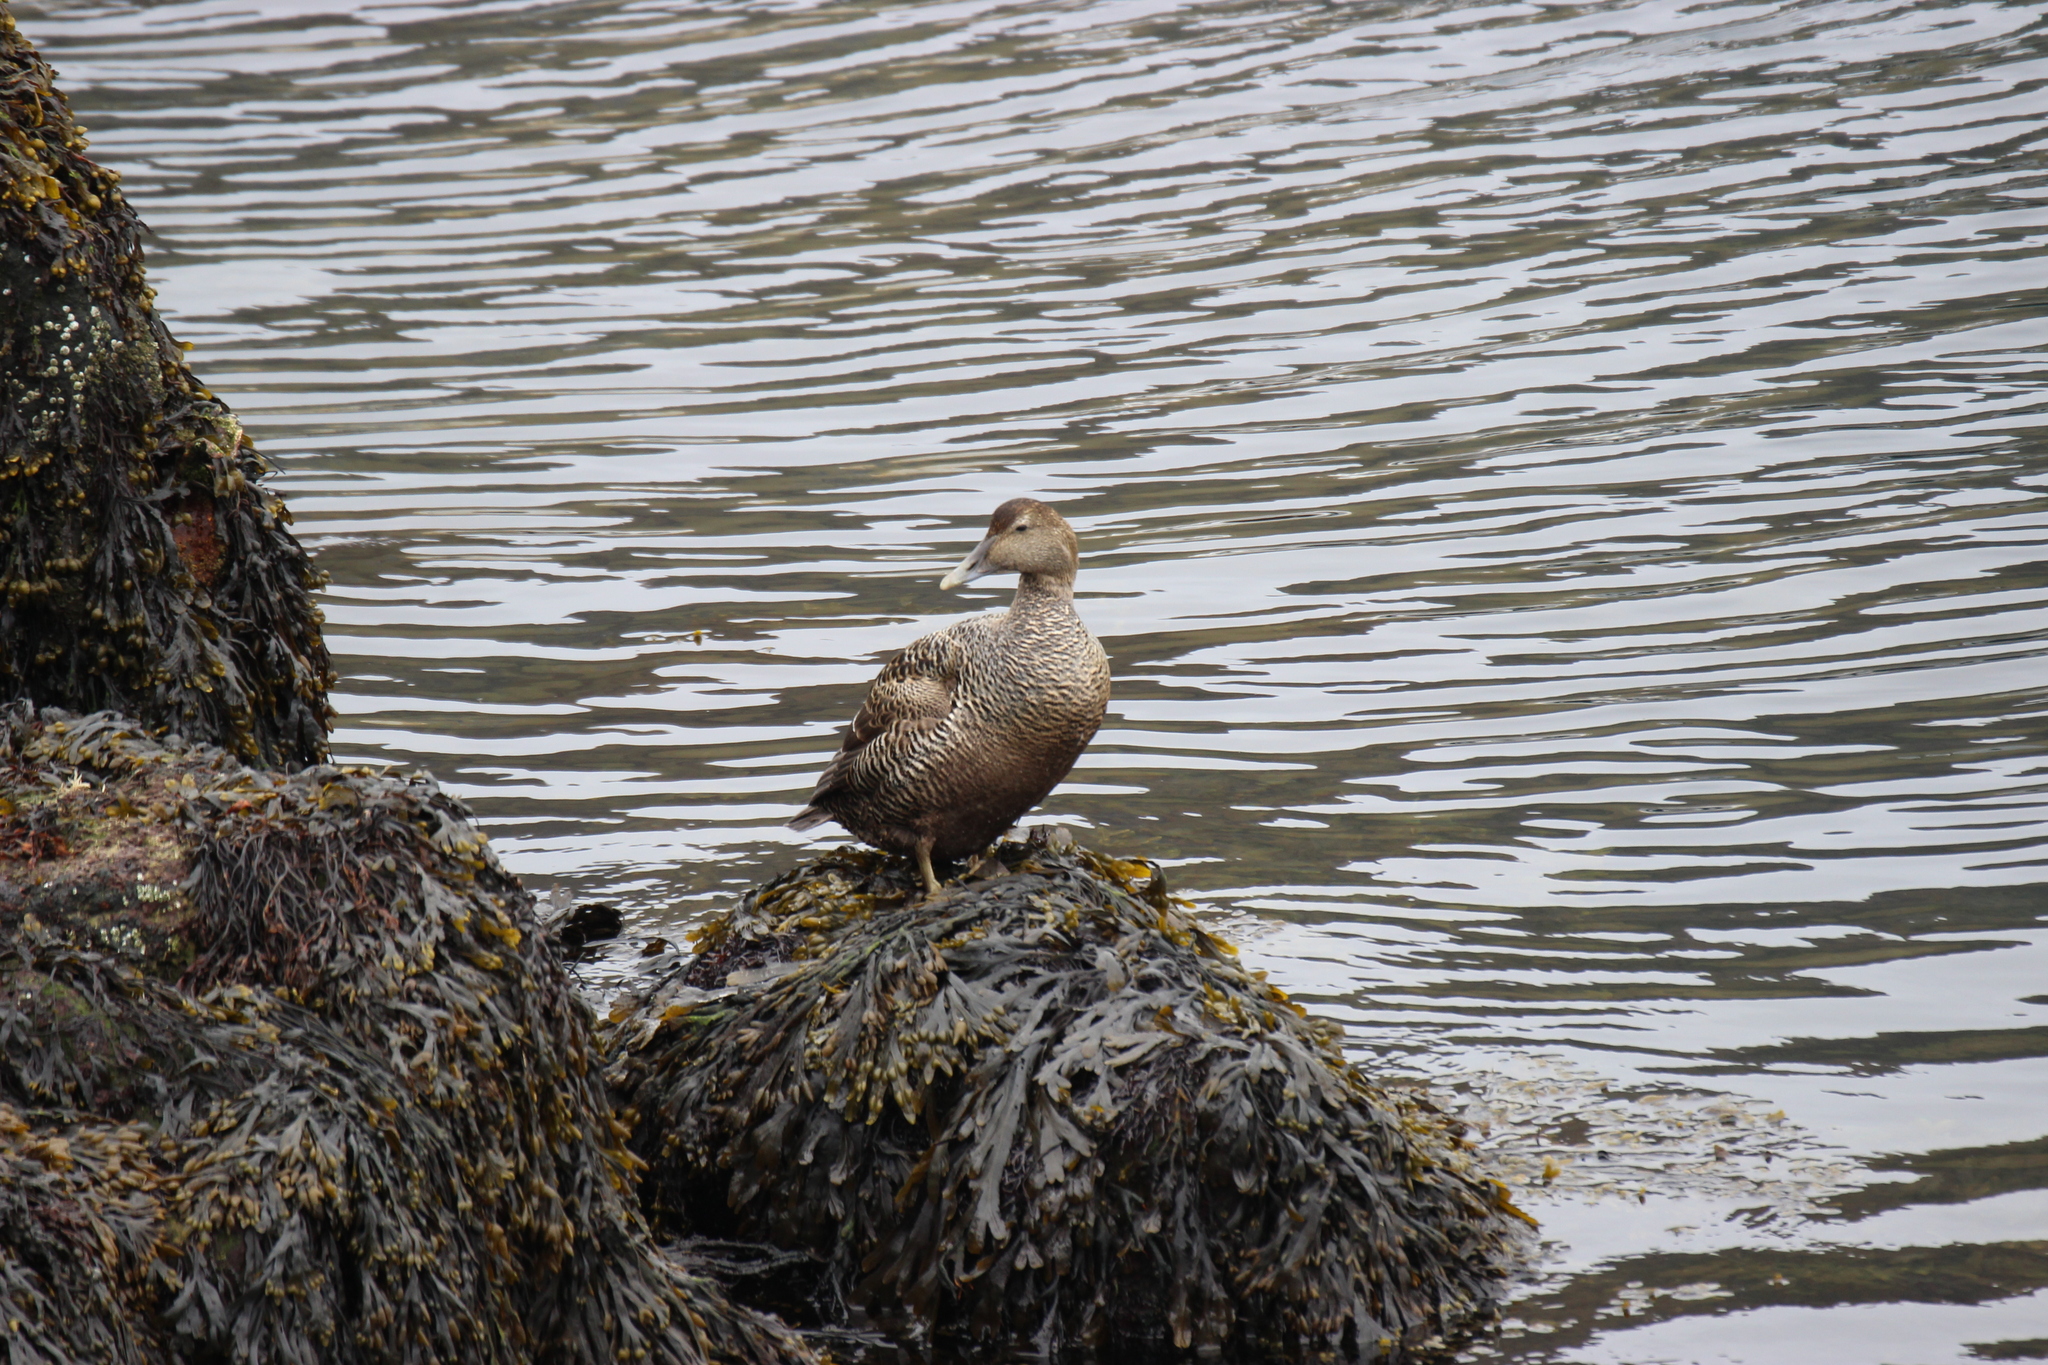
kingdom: Animalia
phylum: Chordata
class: Aves
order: Anseriformes
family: Anatidae
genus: Somateria
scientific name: Somateria mollissima
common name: Common eider
